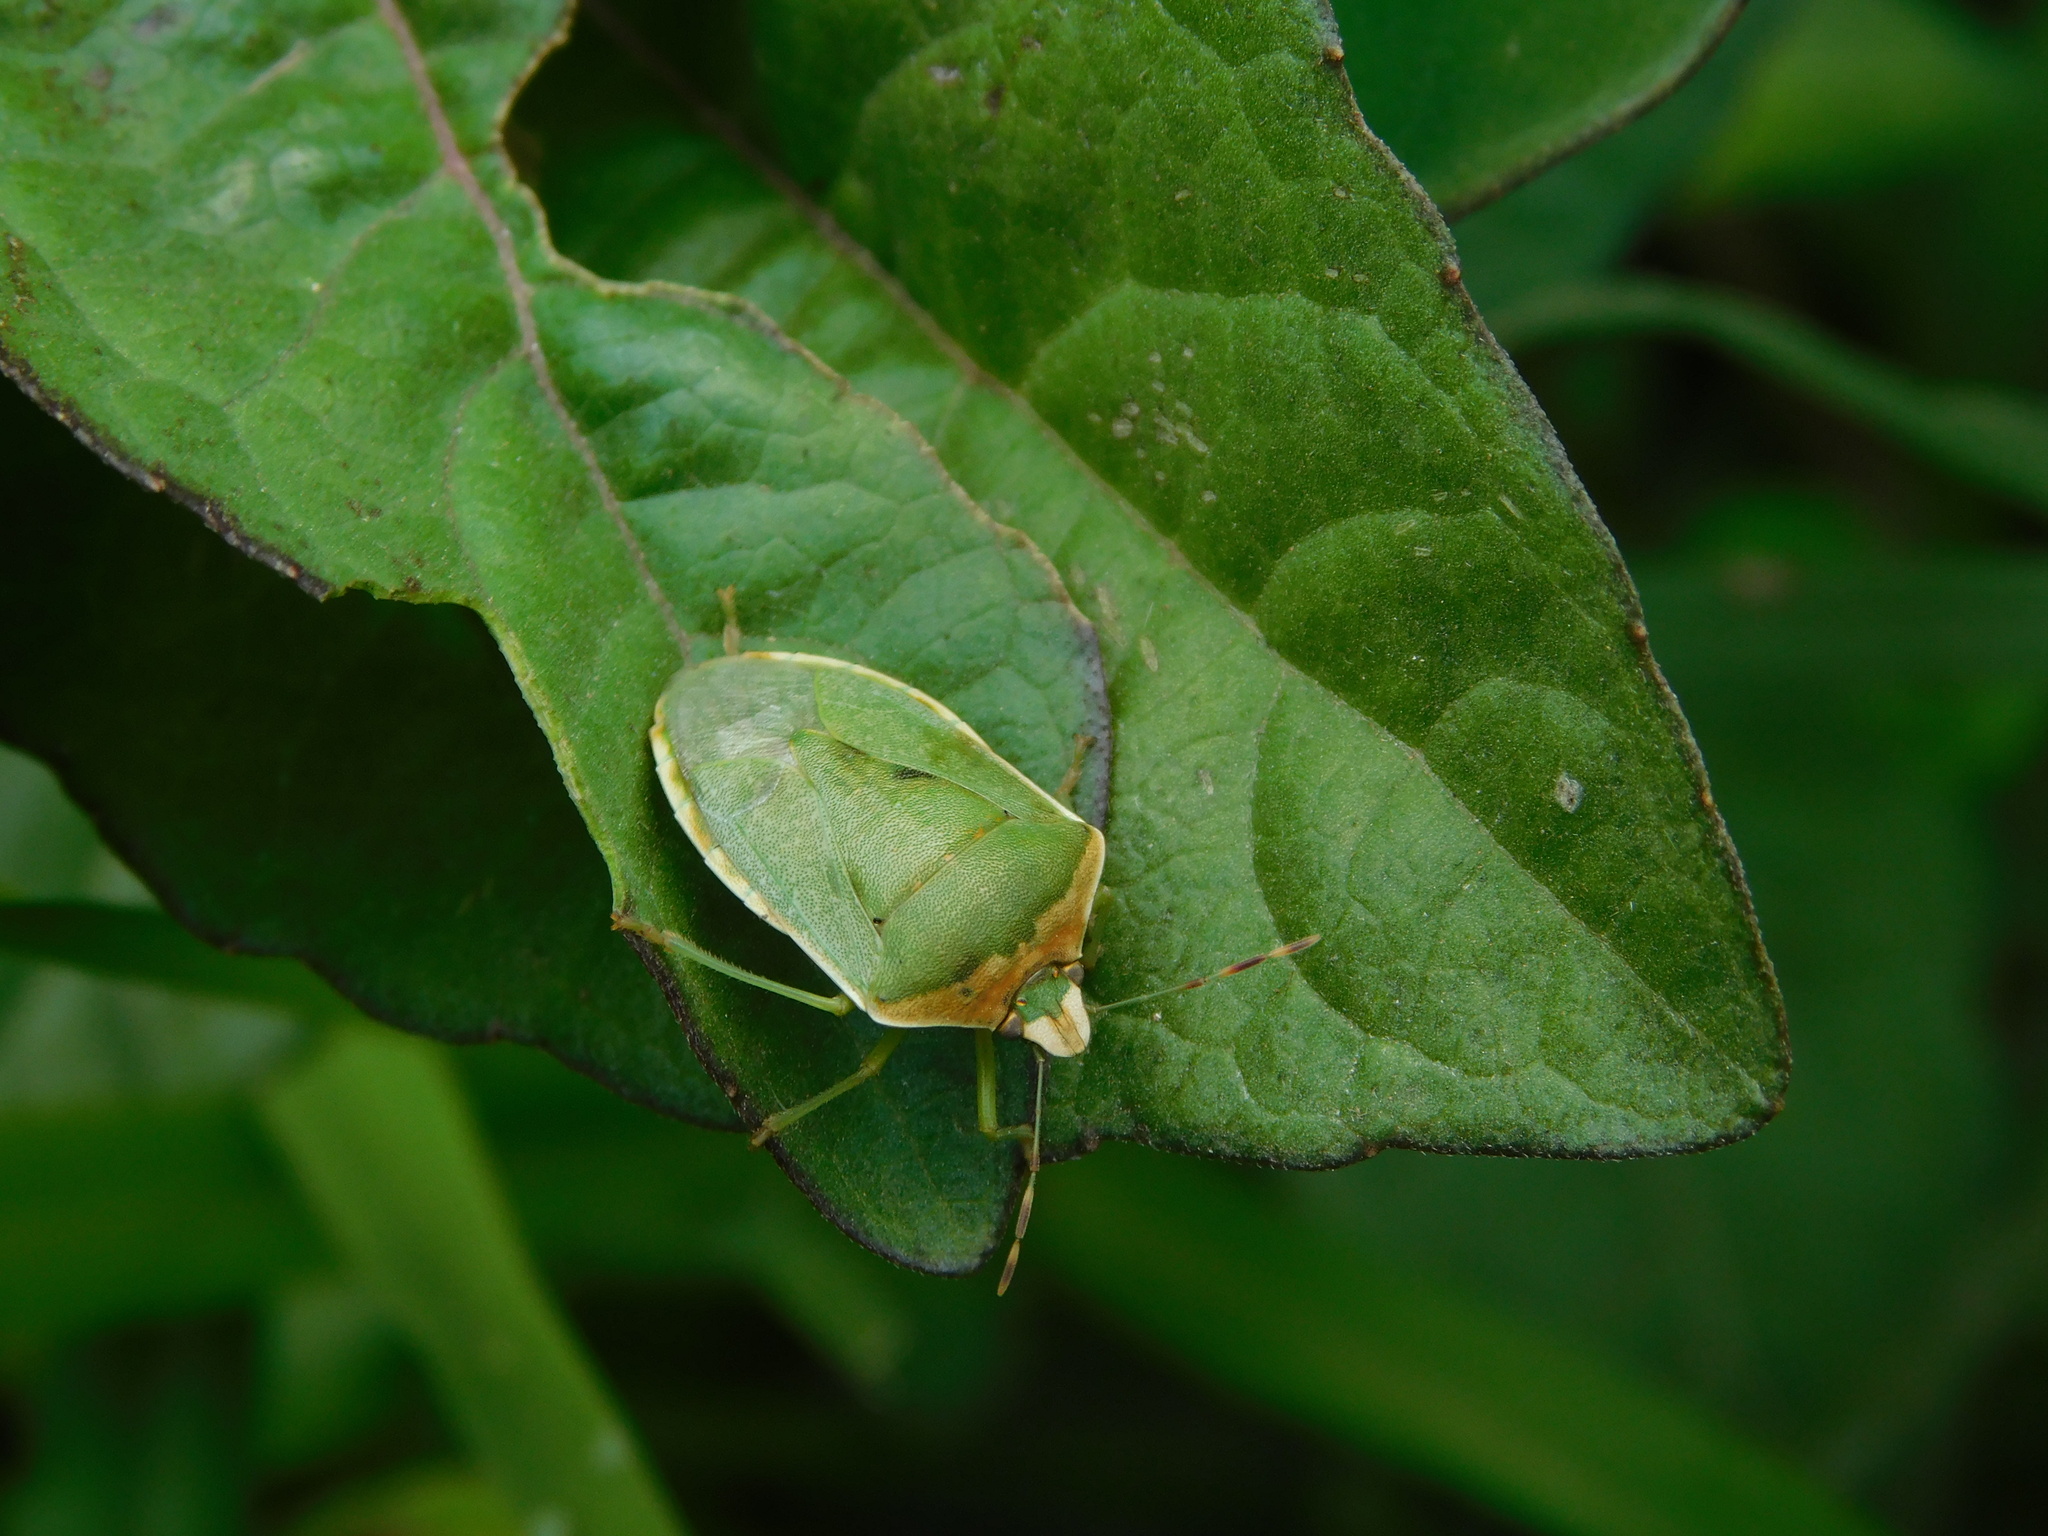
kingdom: Animalia
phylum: Arthropoda
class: Insecta
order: Hemiptera
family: Pentatomidae
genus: Nezara
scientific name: Nezara viridula
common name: Southern green stink bug
